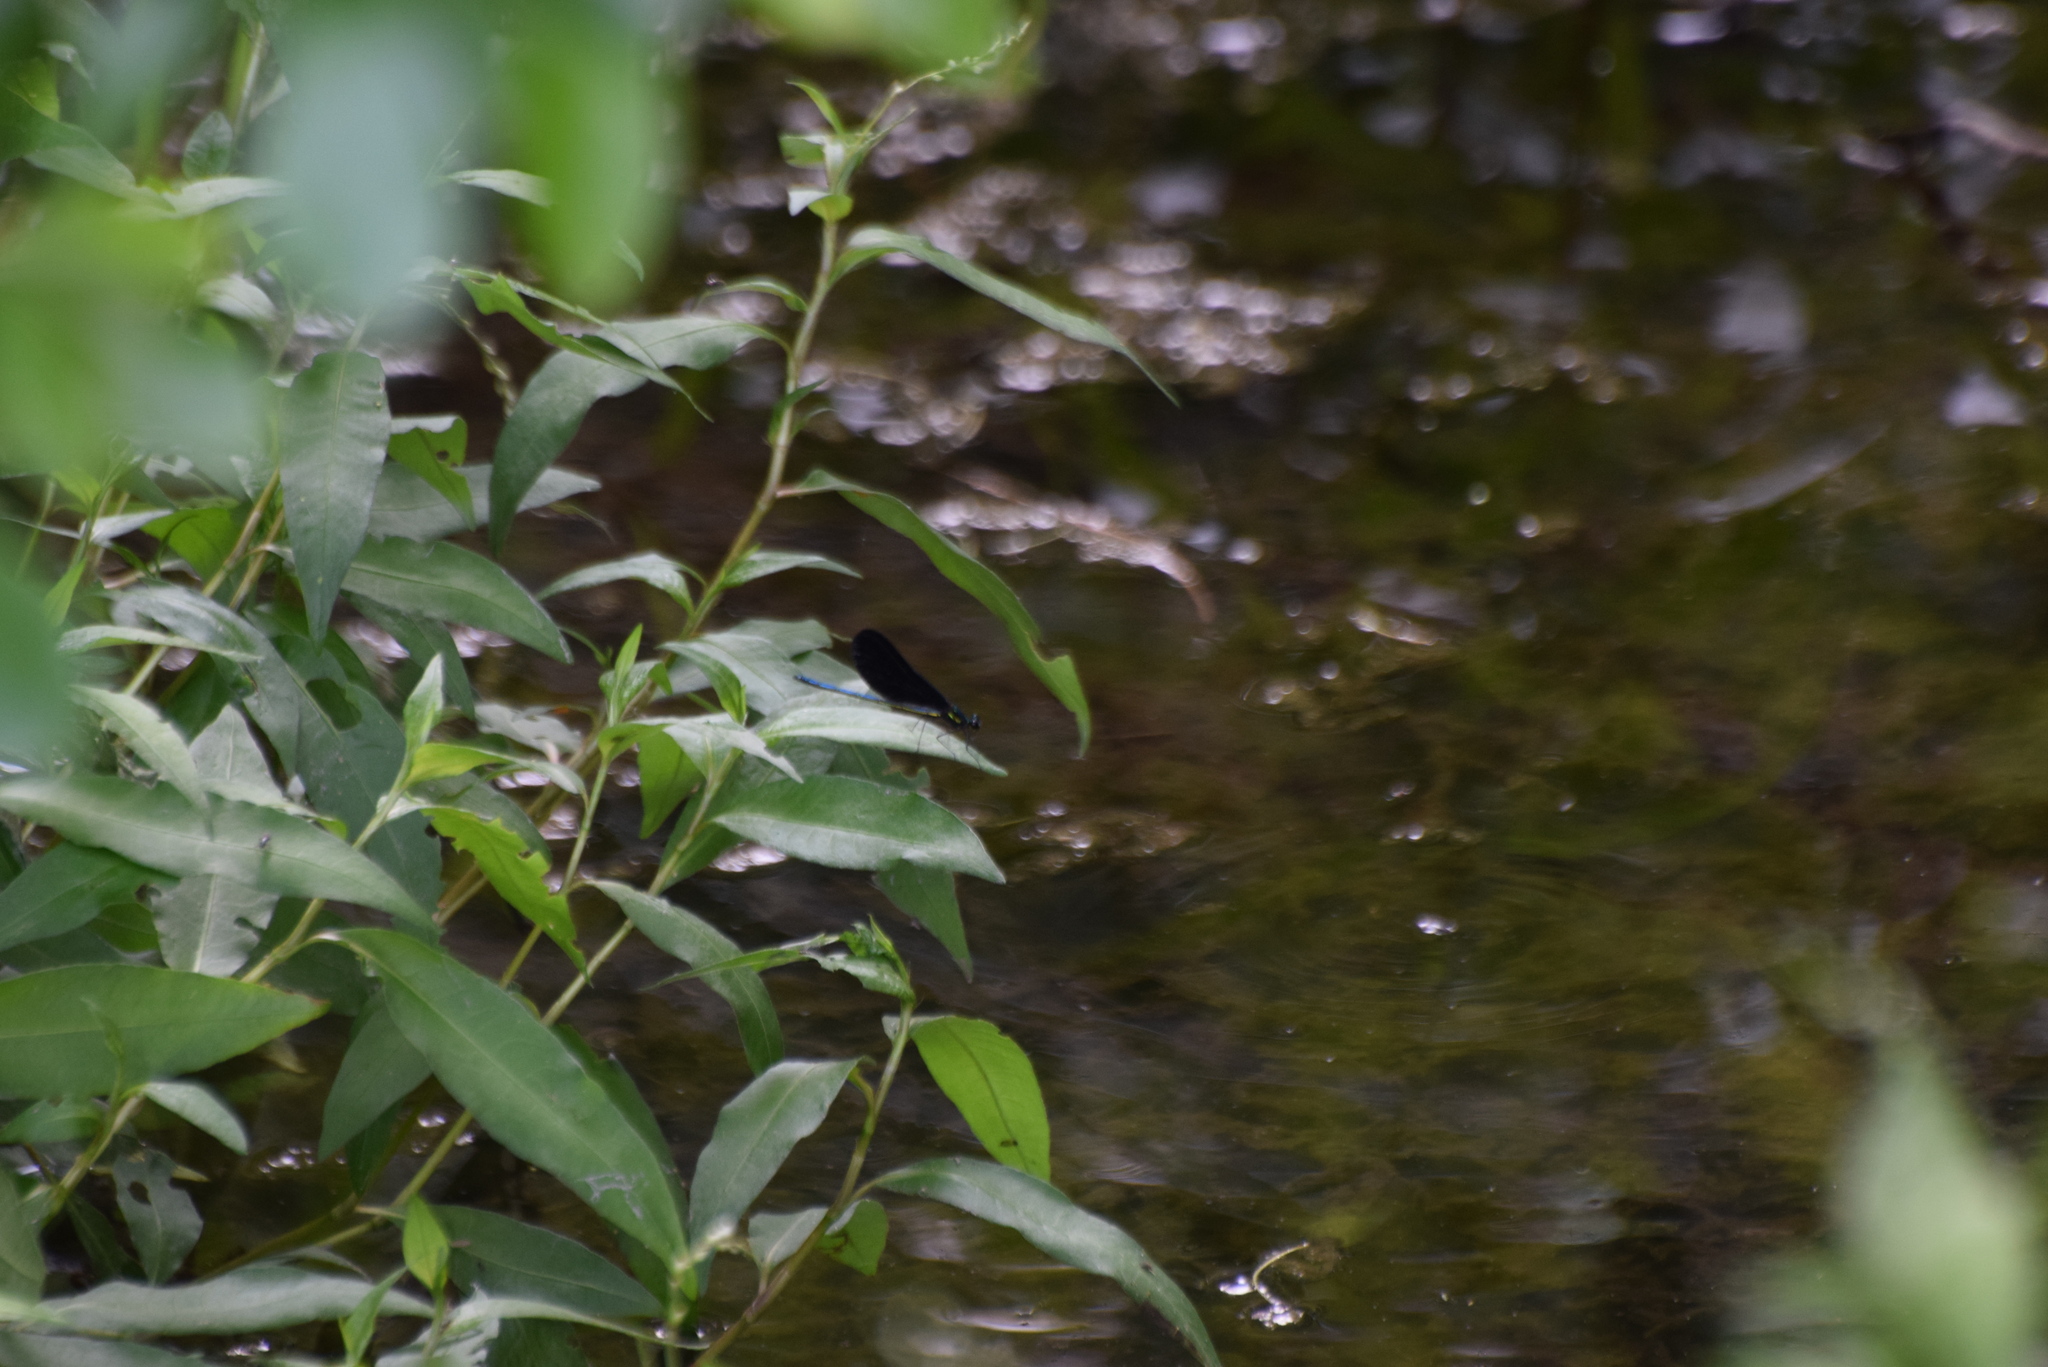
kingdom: Animalia
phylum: Arthropoda
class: Insecta
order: Odonata
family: Calopterygidae
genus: Calopteryx
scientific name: Calopteryx maculata
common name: Ebony jewelwing
